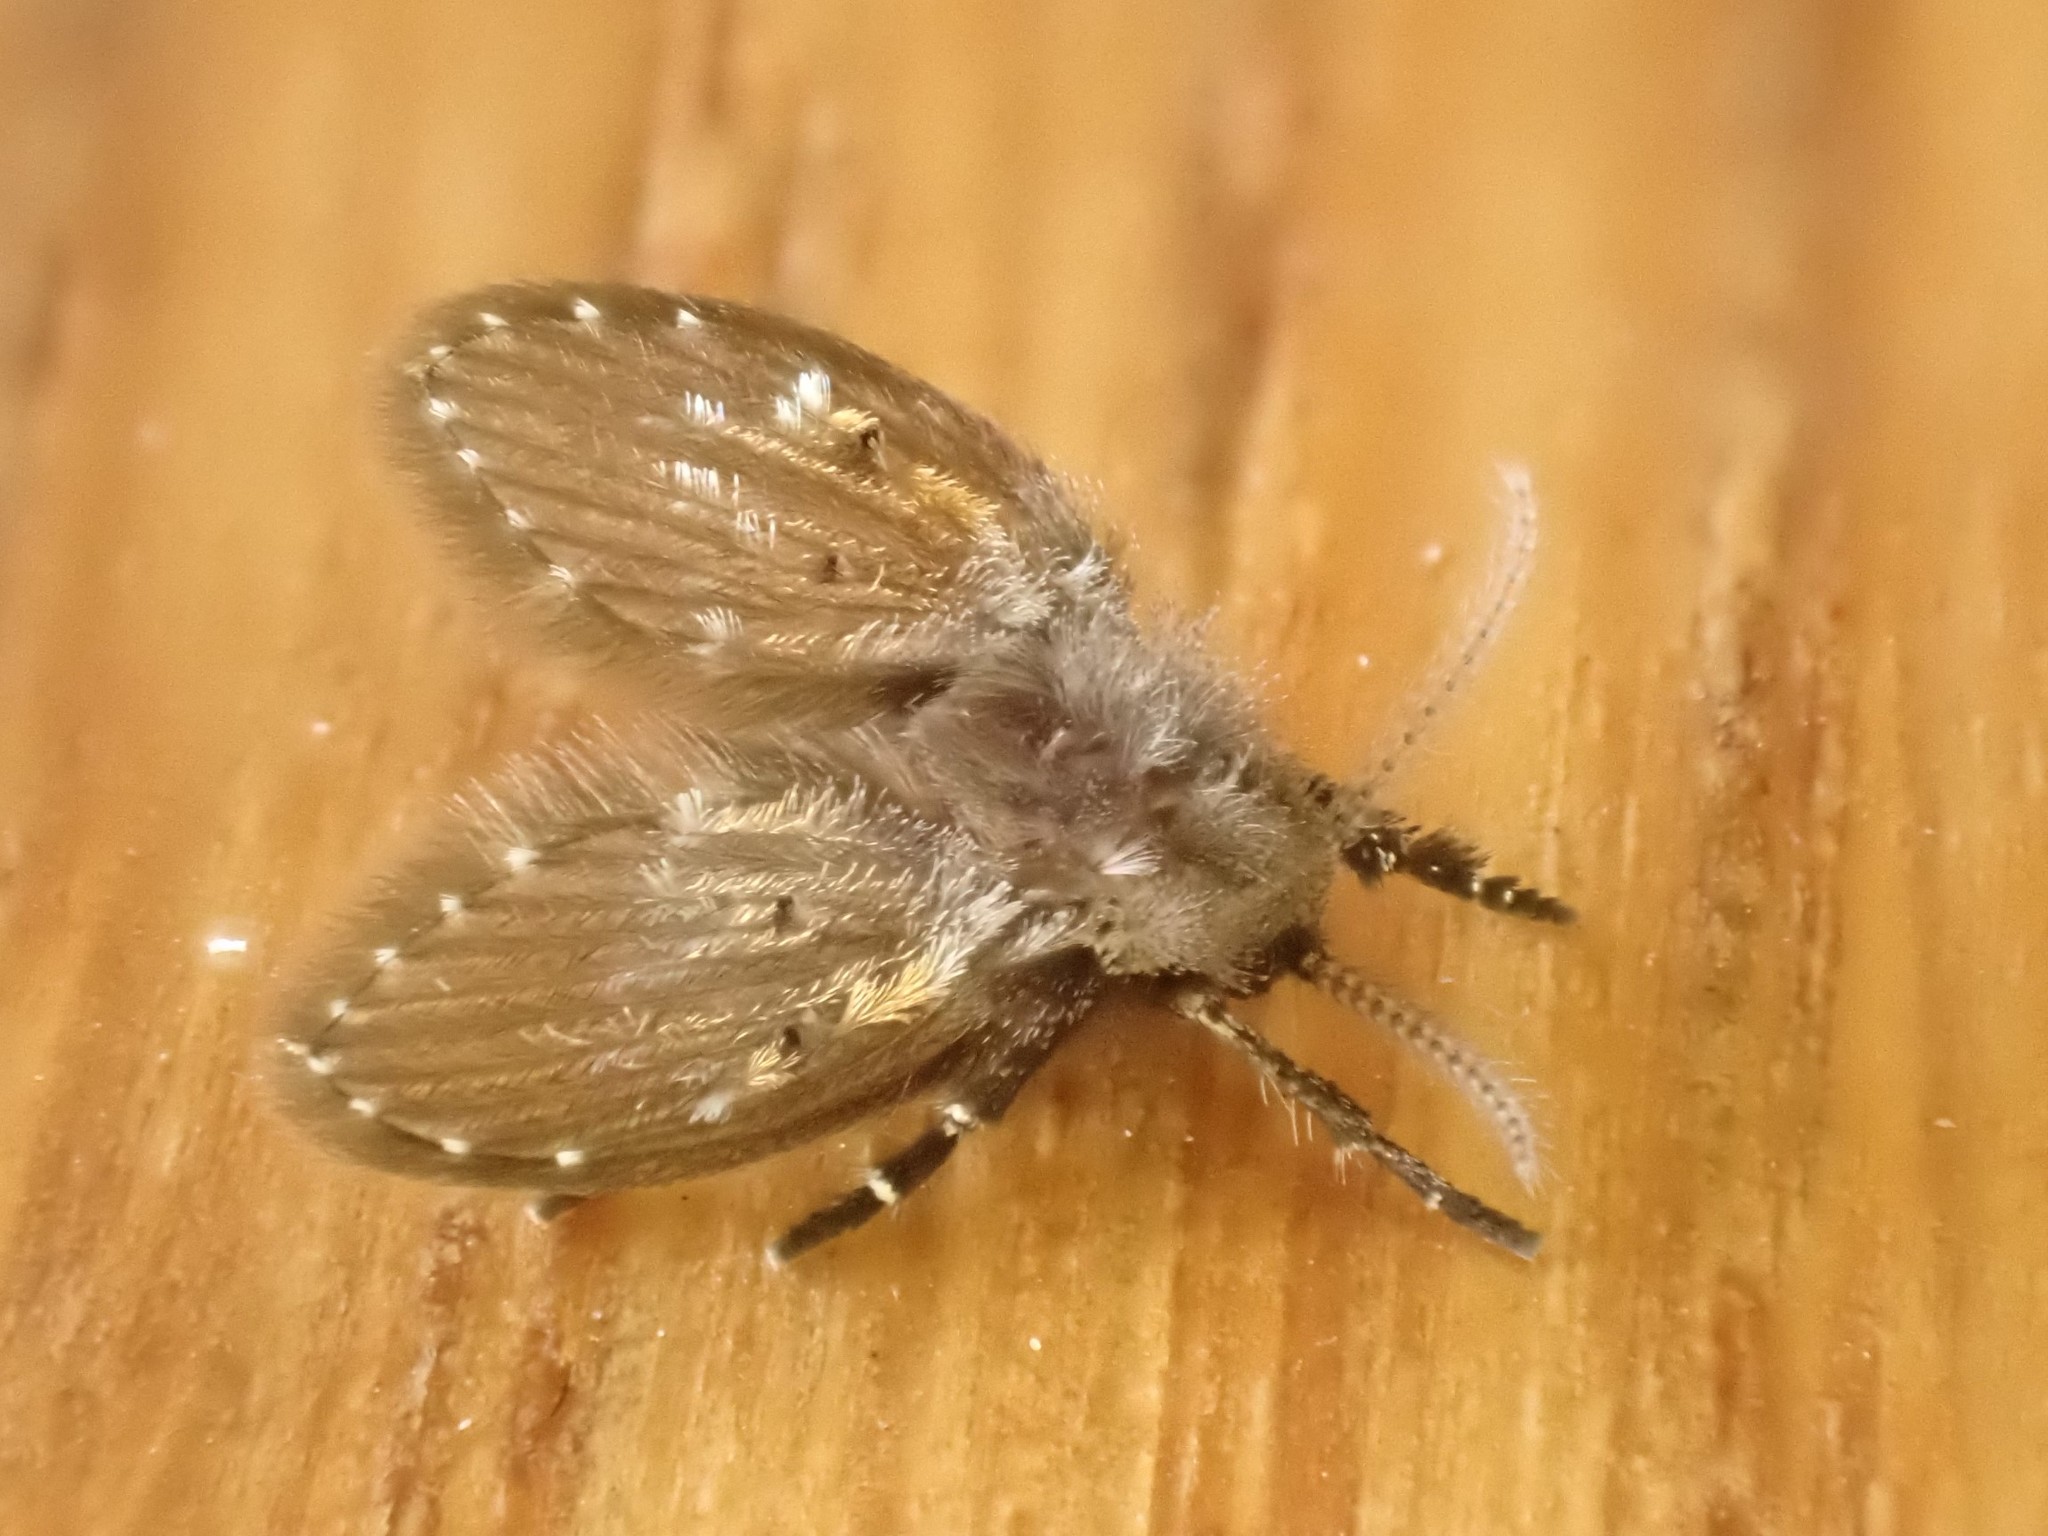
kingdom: Animalia
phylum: Arthropoda
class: Insecta
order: Diptera
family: Psychodidae
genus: Clogmia
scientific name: Clogmia albipunctatus
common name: White-spotted moth fly
